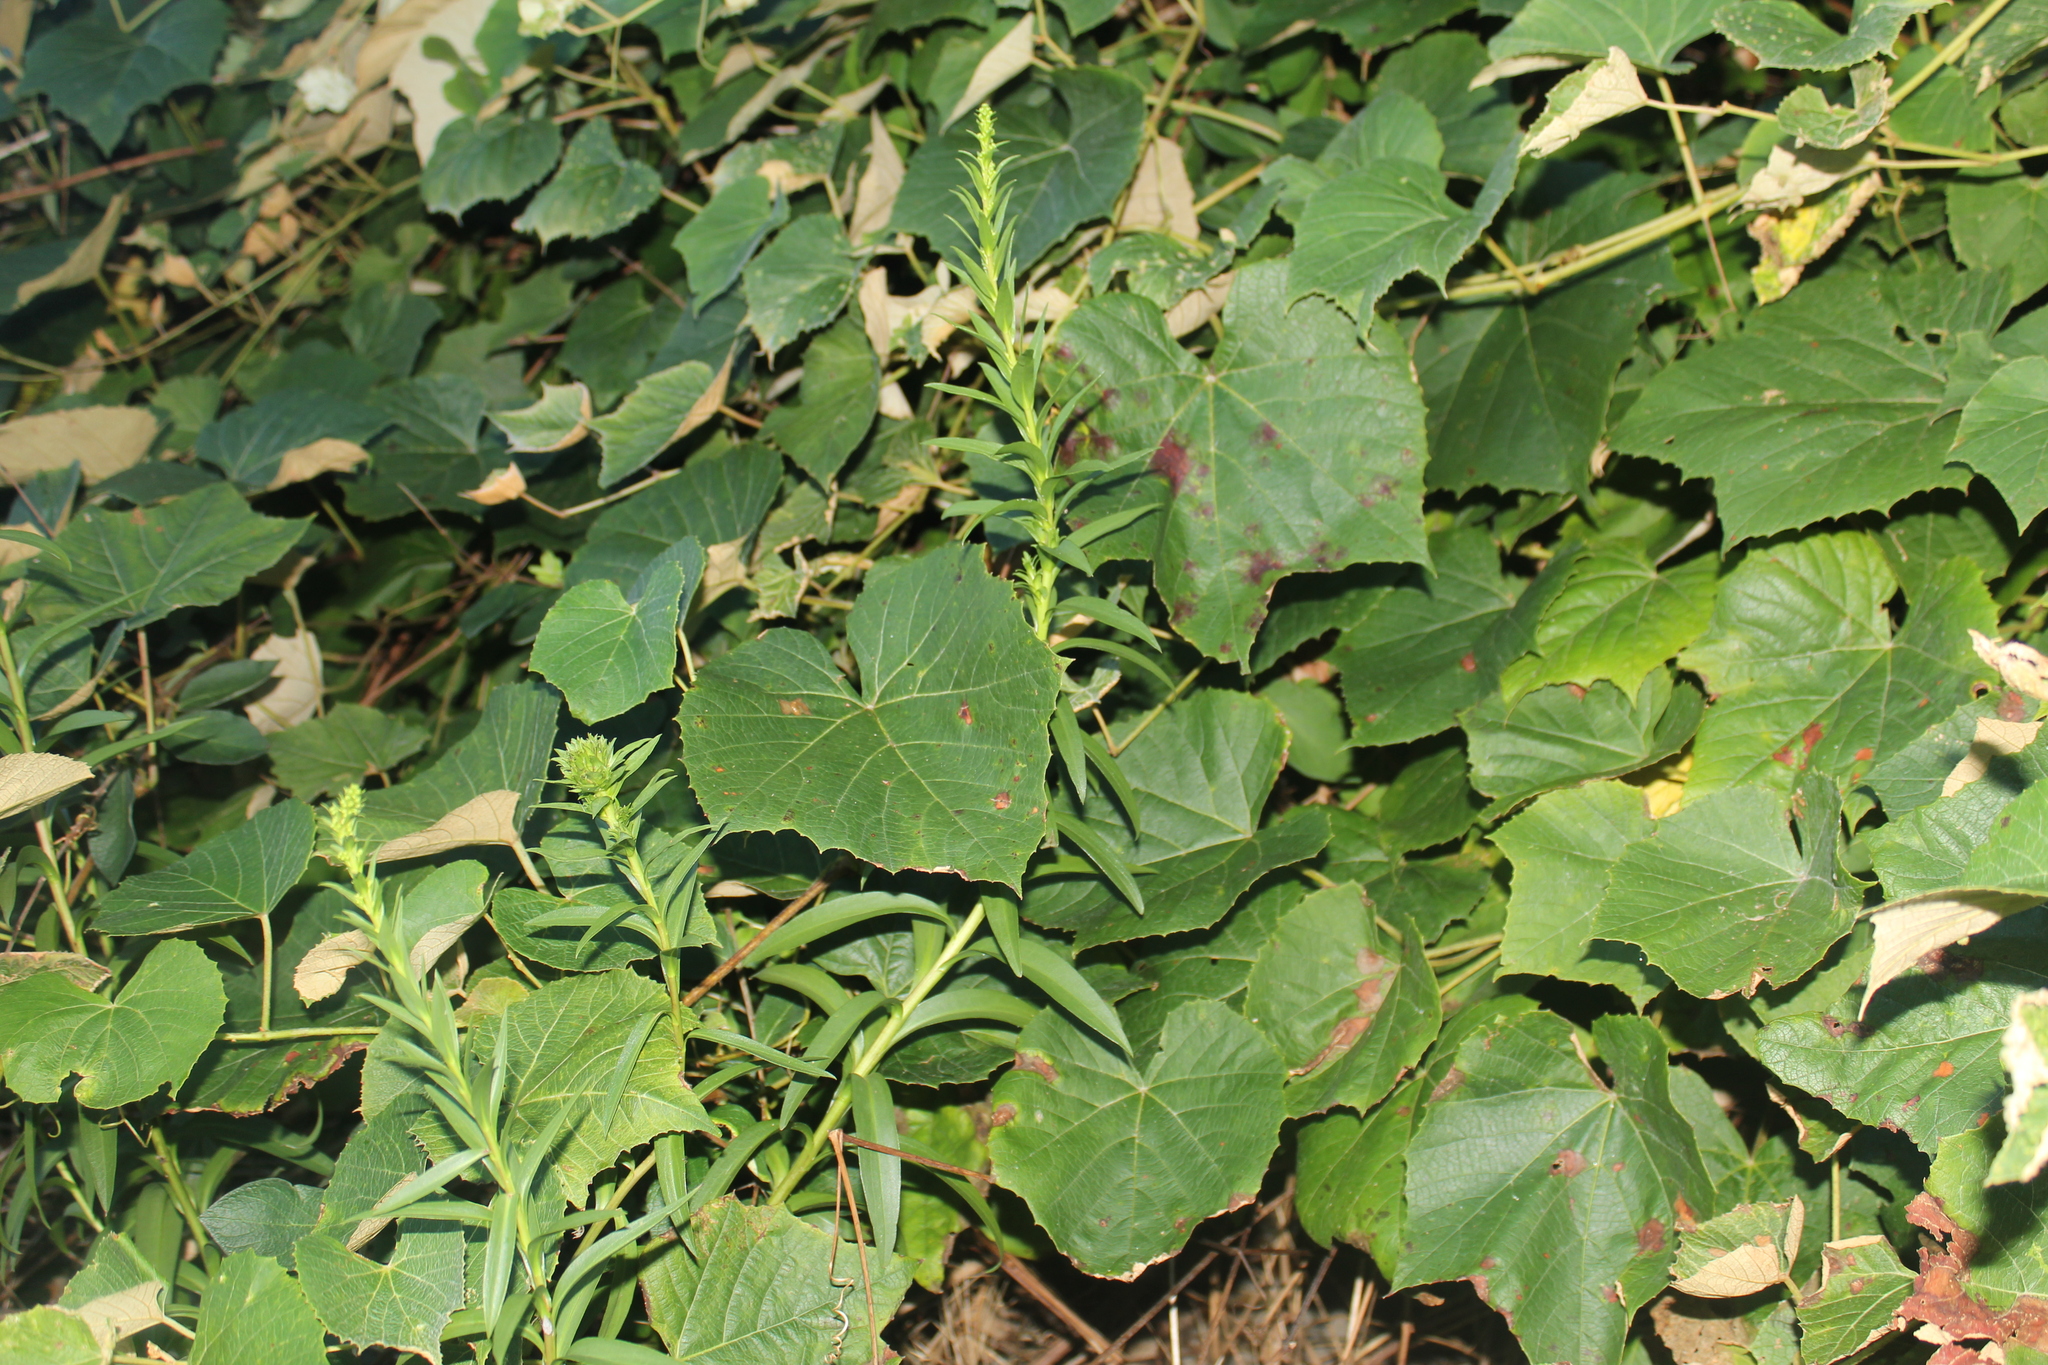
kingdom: Plantae
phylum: Tracheophyta
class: Magnoliopsida
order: Vitales
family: Vitaceae
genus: Vitis
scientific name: Vitis labrusca
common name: Concord grape
